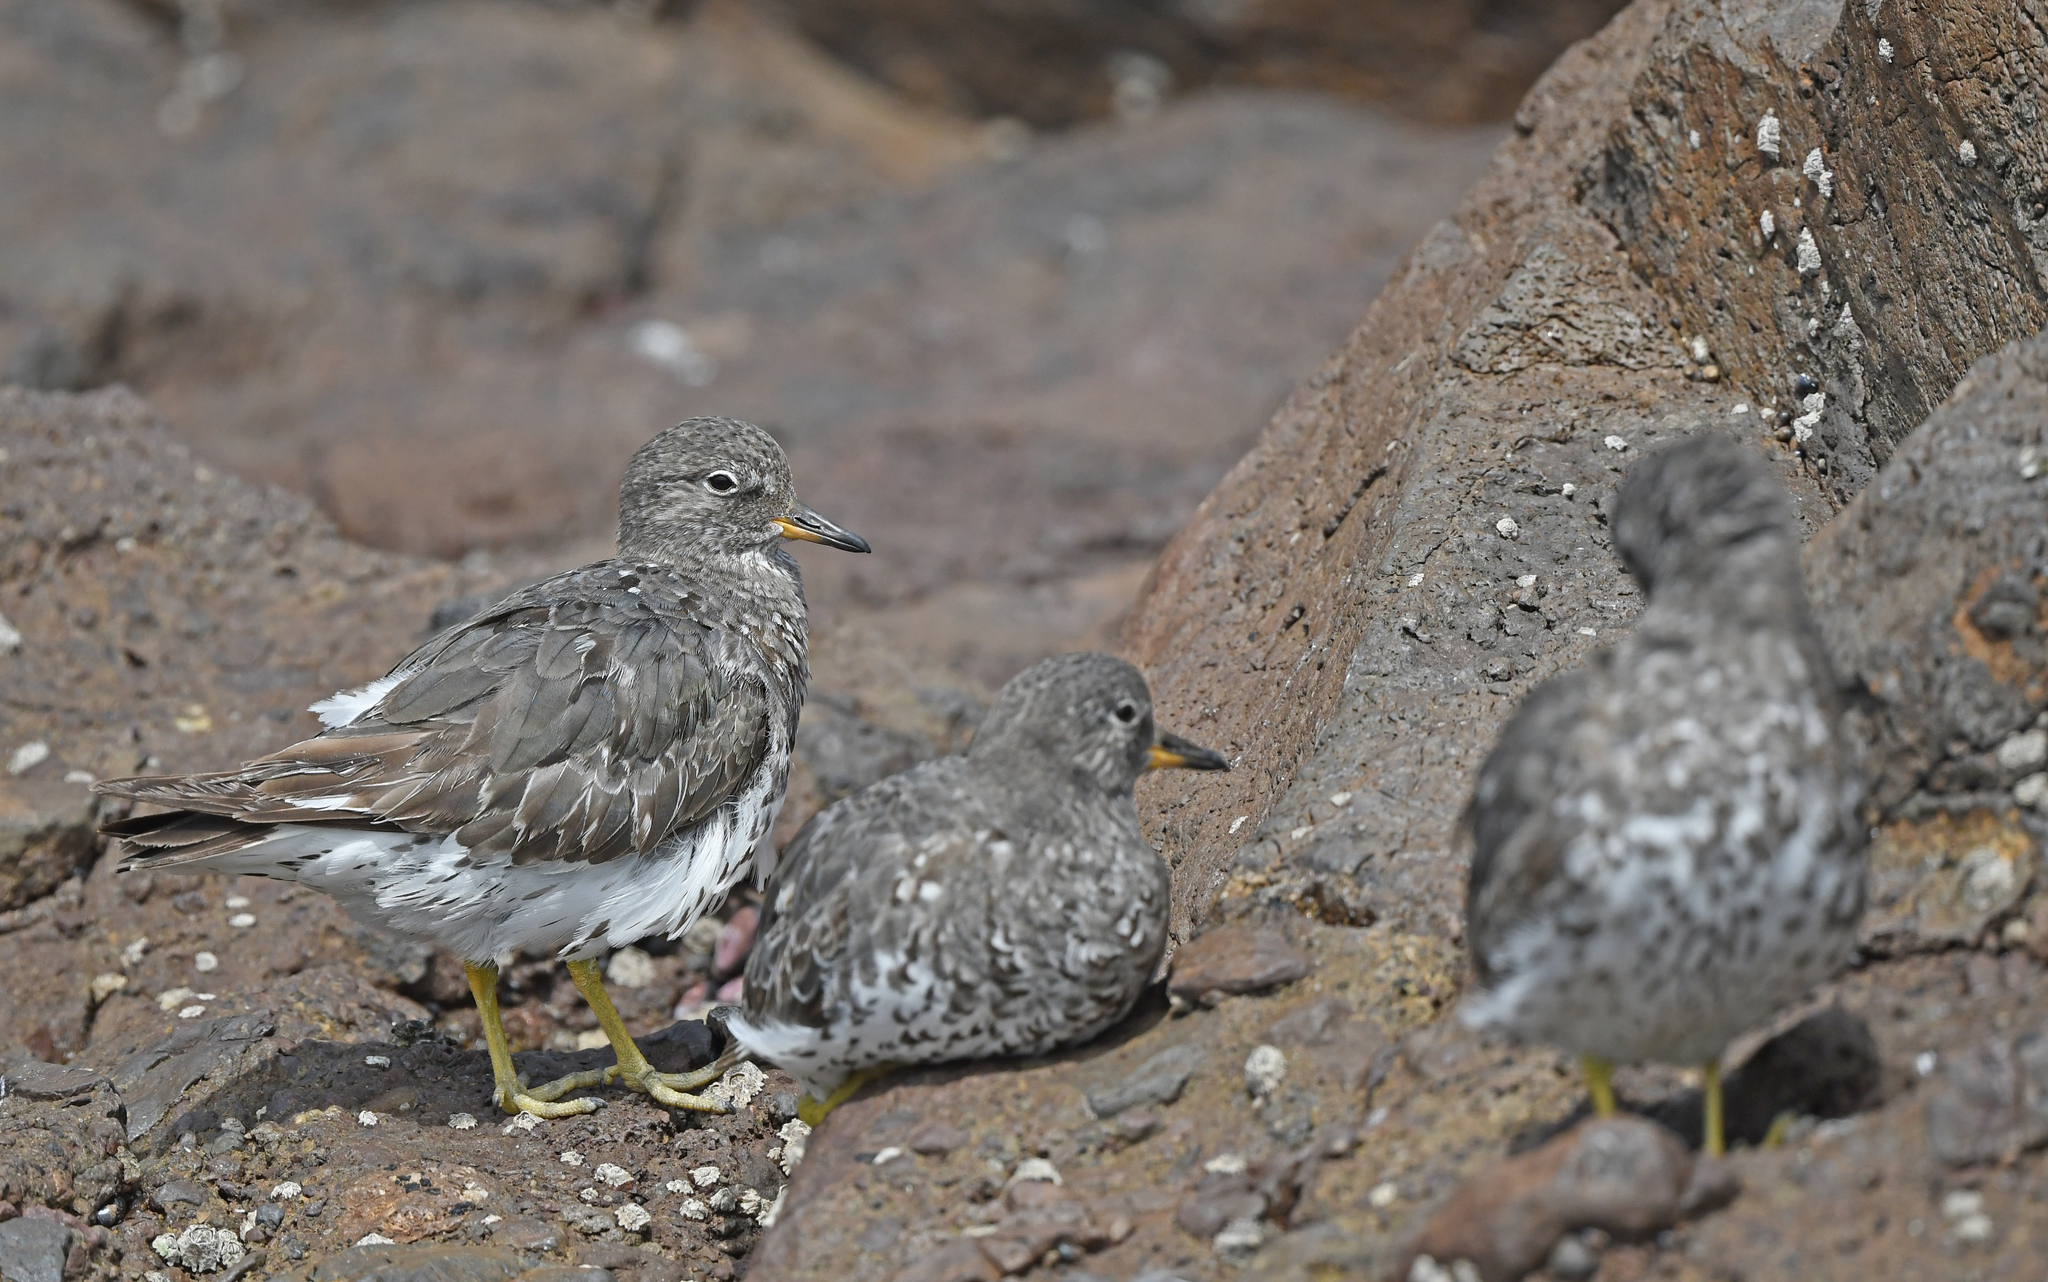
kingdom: Animalia
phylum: Chordata
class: Aves
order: Charadriiformes
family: Scolopacidae
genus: Calidris
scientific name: Calidris virgata
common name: Surfbird
